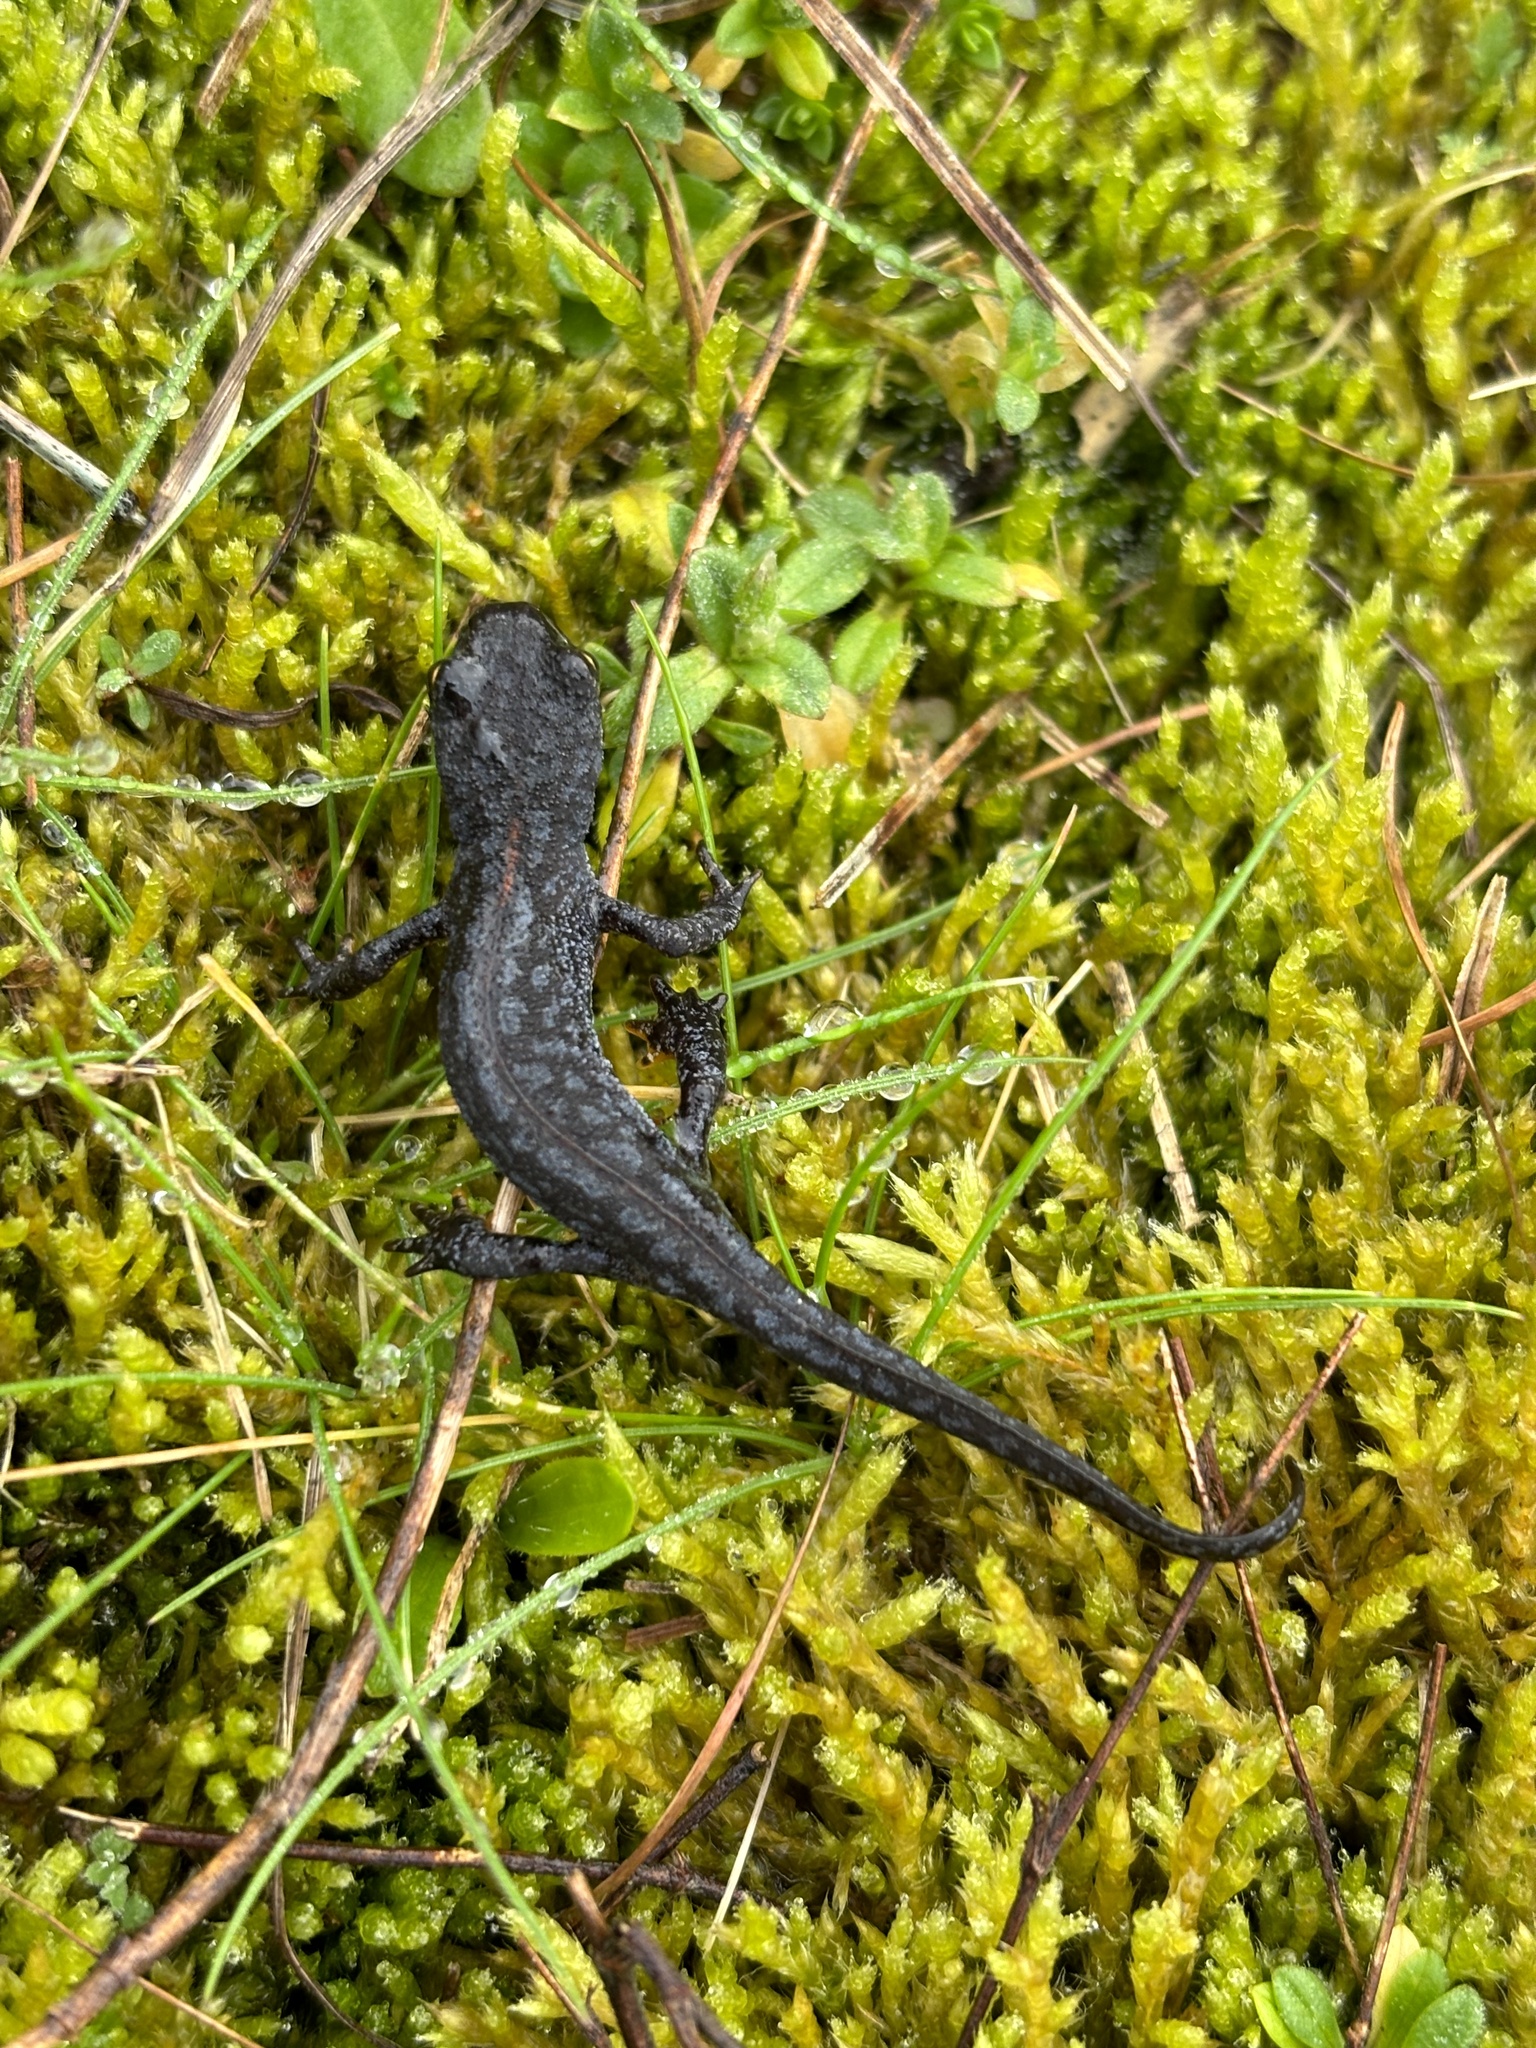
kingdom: Animalia
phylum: Chordata
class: Amphibia
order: Caudata
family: Salamandridae
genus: Ichthyosaura
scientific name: Ichthyosaura alpestris
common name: Alpine newt
